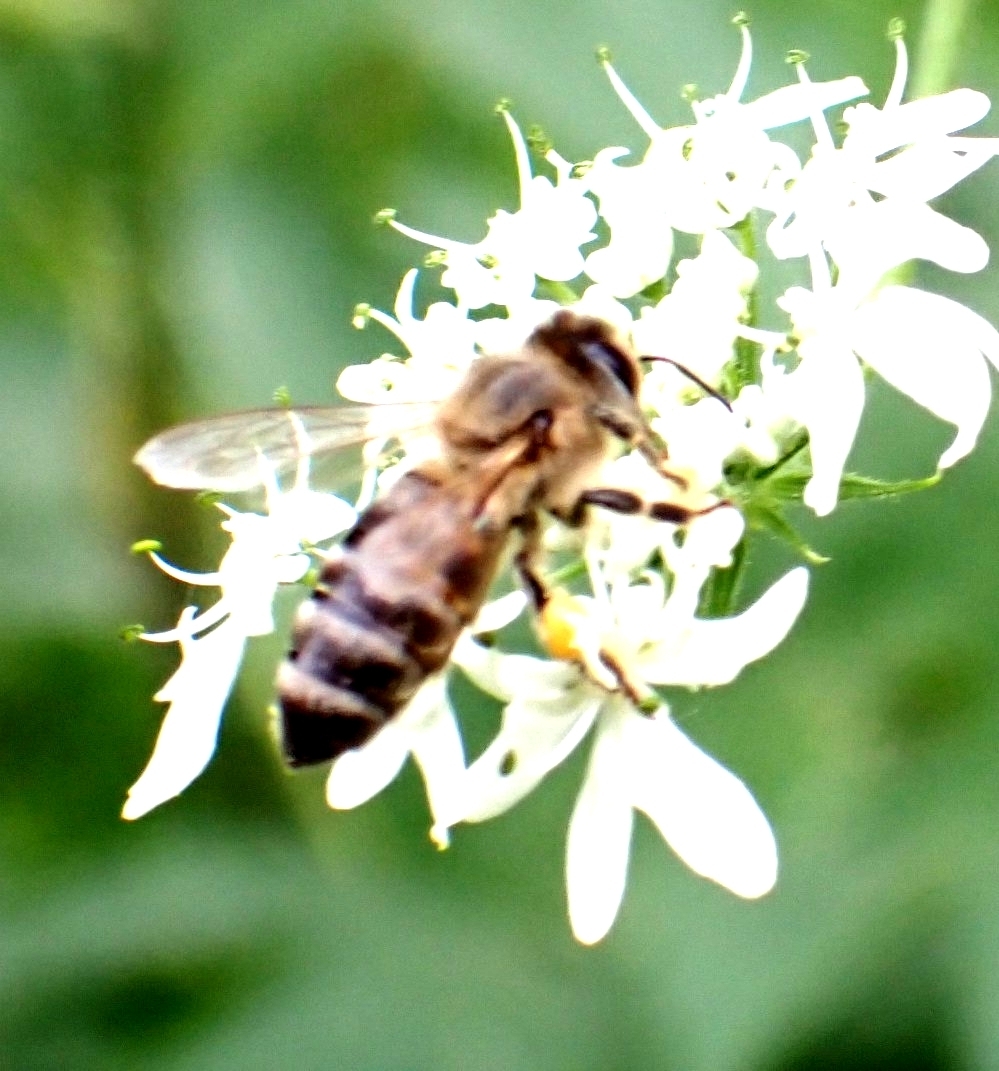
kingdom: Animalia
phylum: Arthropoda
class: Insecta
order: Hymenoptera
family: Apidae
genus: Apis
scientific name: Apis mellifera
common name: Honey bee
